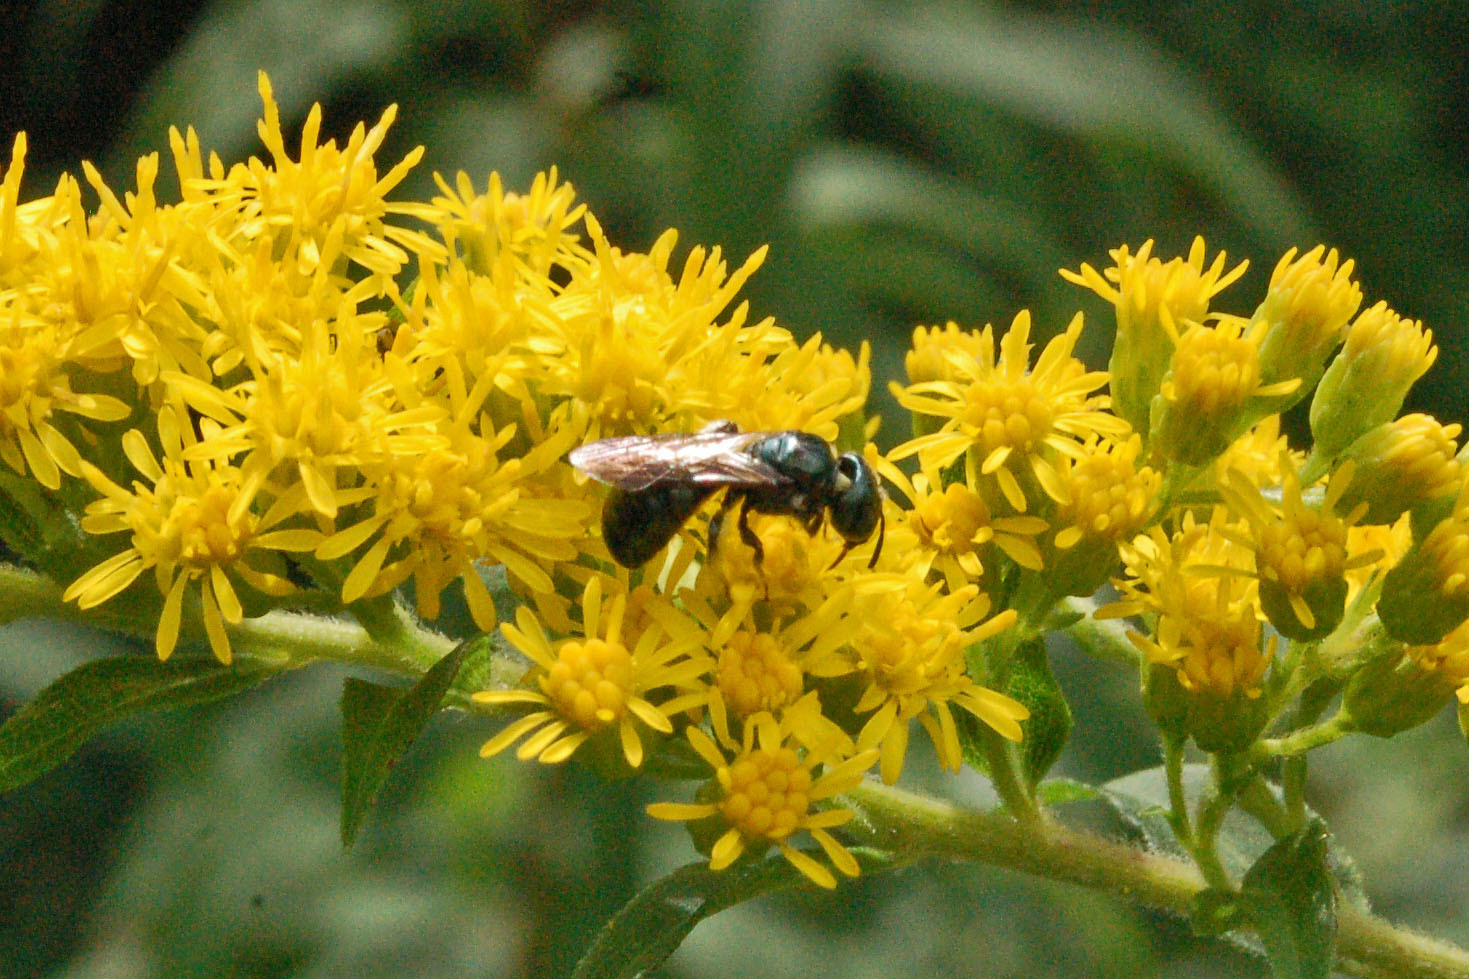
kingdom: Animalia
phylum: Arthropoda
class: Insecta
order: Hymenoptera
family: Apidae
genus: Zadontomerus
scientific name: Zadontomerus
